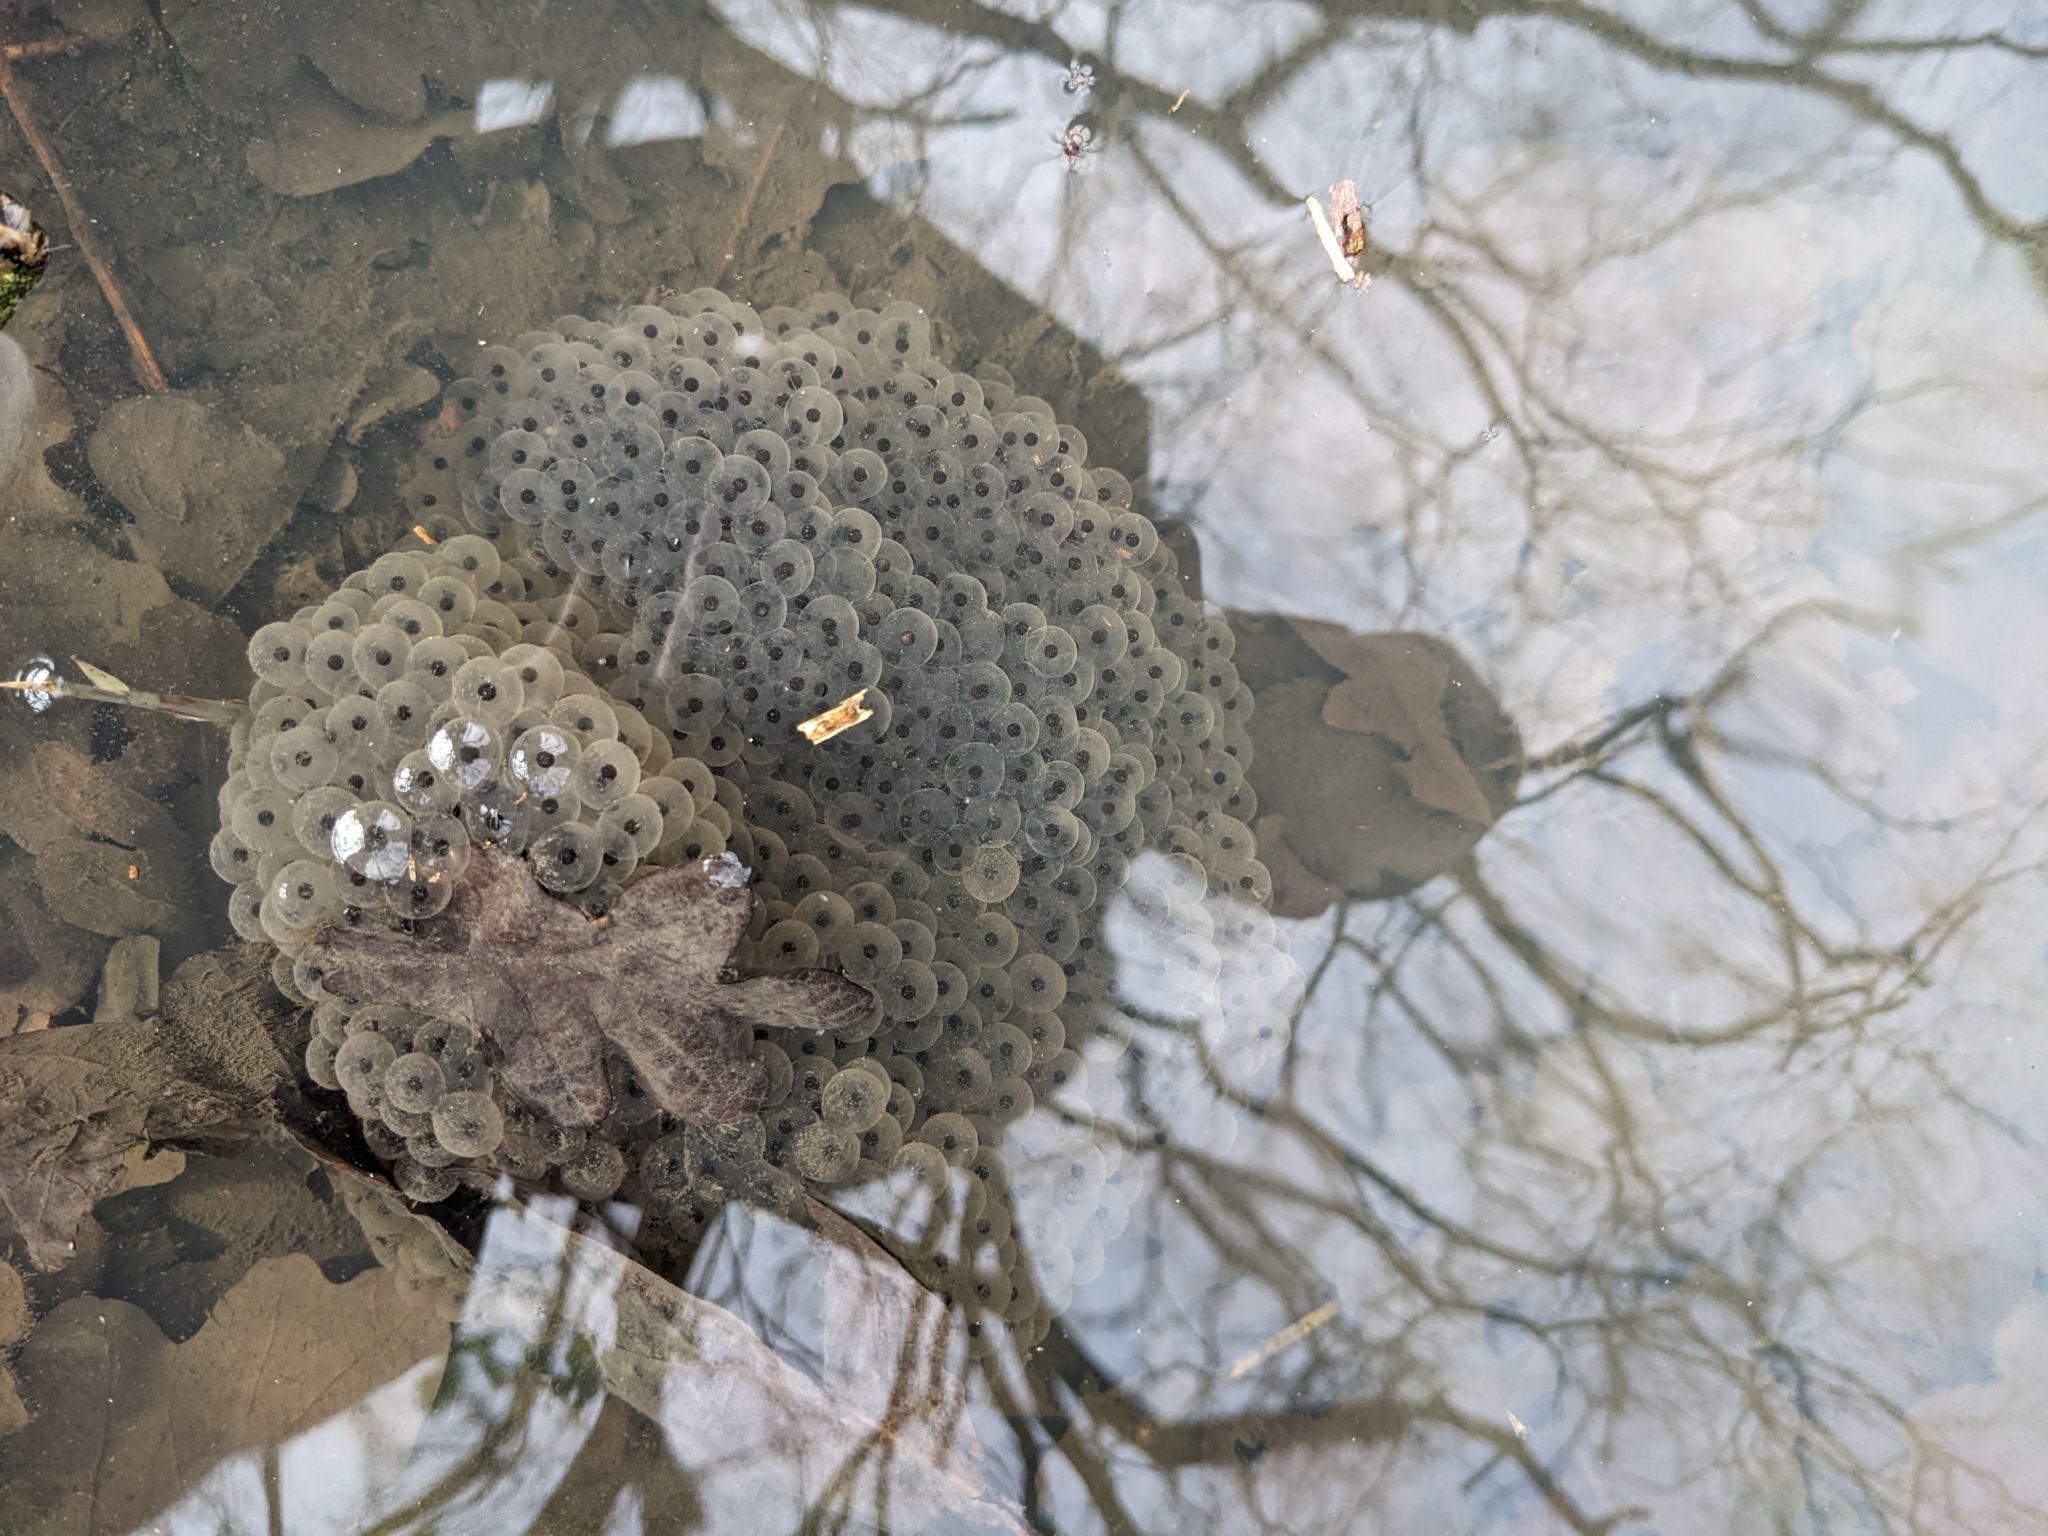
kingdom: Animalia
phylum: Chordata
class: Amphibia
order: Anura
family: Ranidae
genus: Rana
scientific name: Rana temporaria
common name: Common frog
